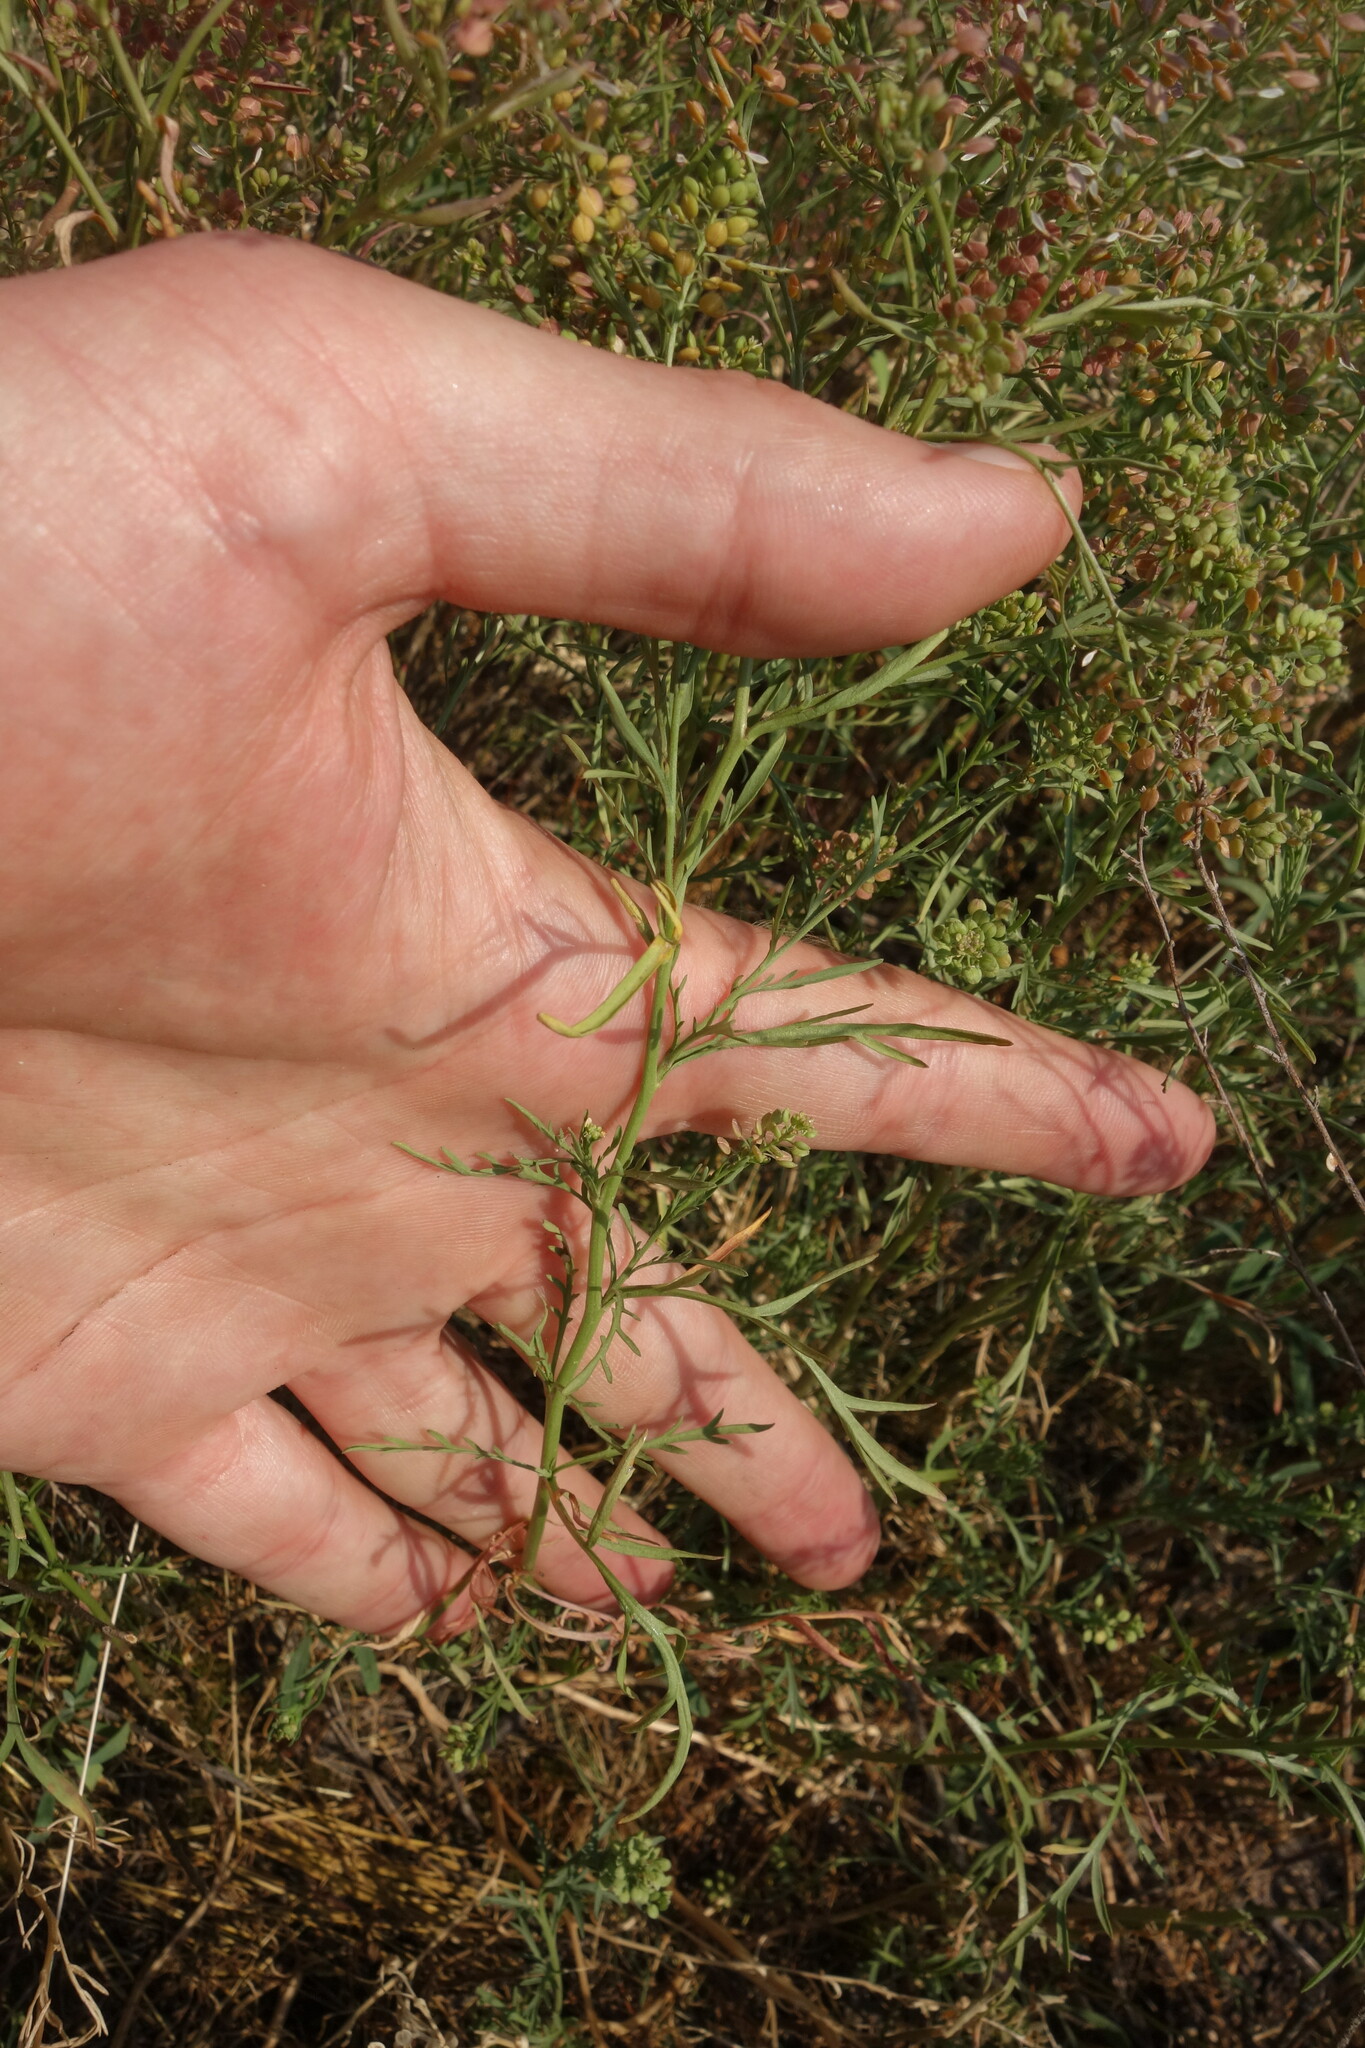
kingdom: Plantae
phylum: Tracheophyta
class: Magnoliopsida
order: Brassicales
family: Brassicaceae
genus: Lepidium
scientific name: Lepidium ruderale
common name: Narrow-leaved pepperwort
